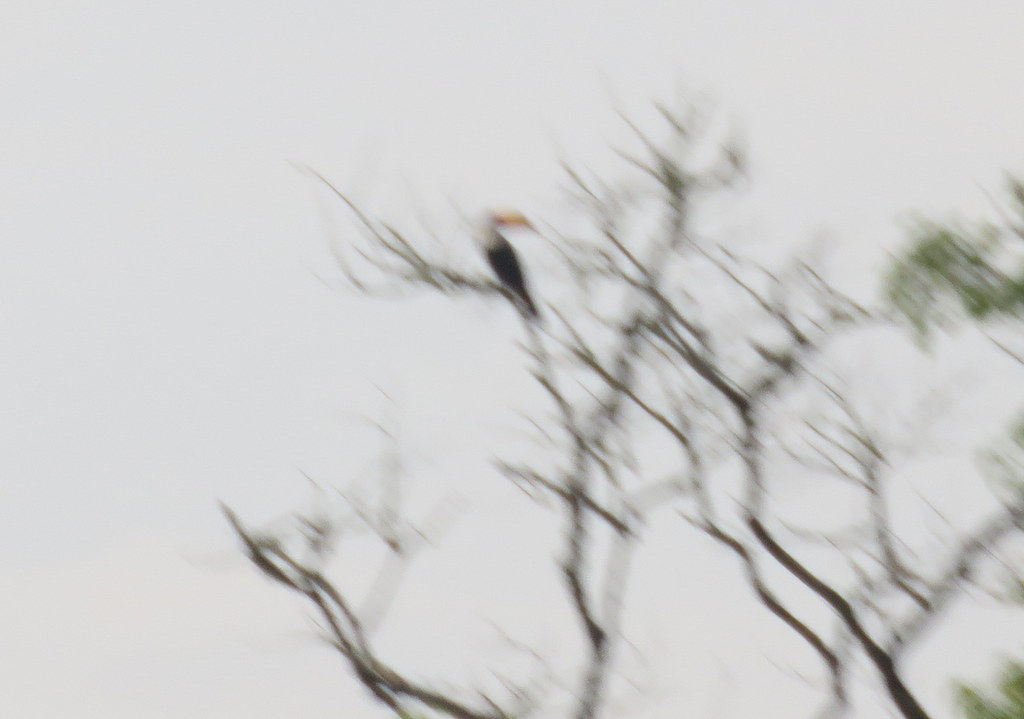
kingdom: Animalia
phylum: Chordata
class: Aves
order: Piciformes
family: Ramphastidae
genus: Ramphastos
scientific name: Ramphastos toco
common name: Toco toucan
